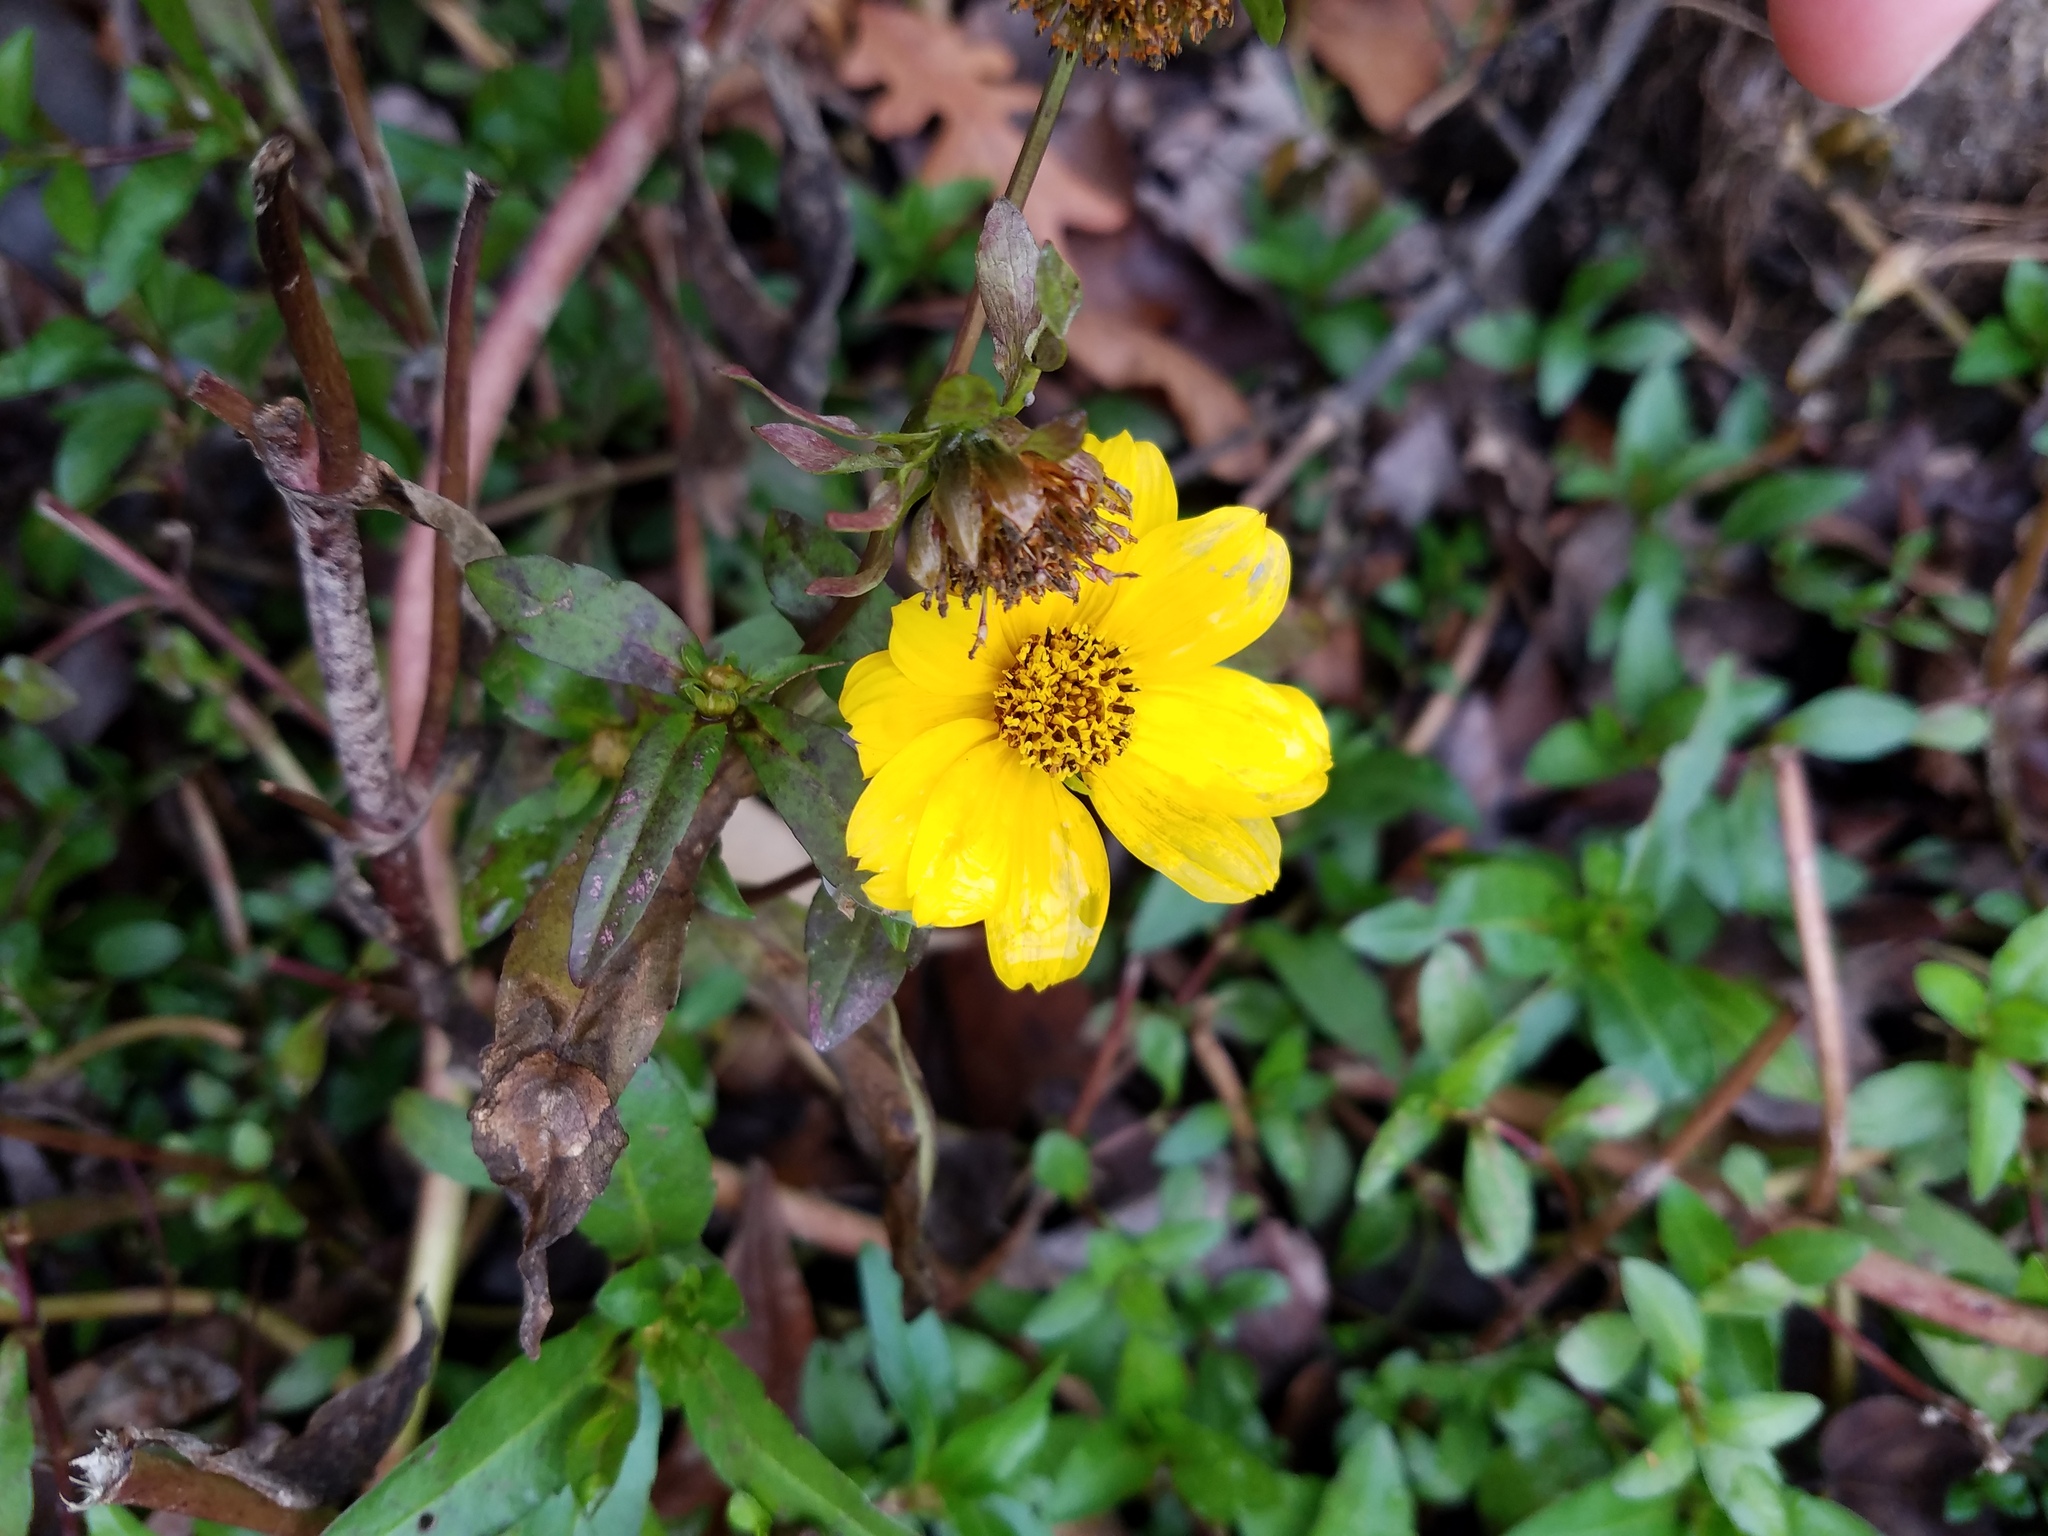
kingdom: Plantae
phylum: Tracheophyta
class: Magnoliopsida
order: Asterales
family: Asteraceae
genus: Bidens
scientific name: Bidens laevis
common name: Larger bur-marigold
